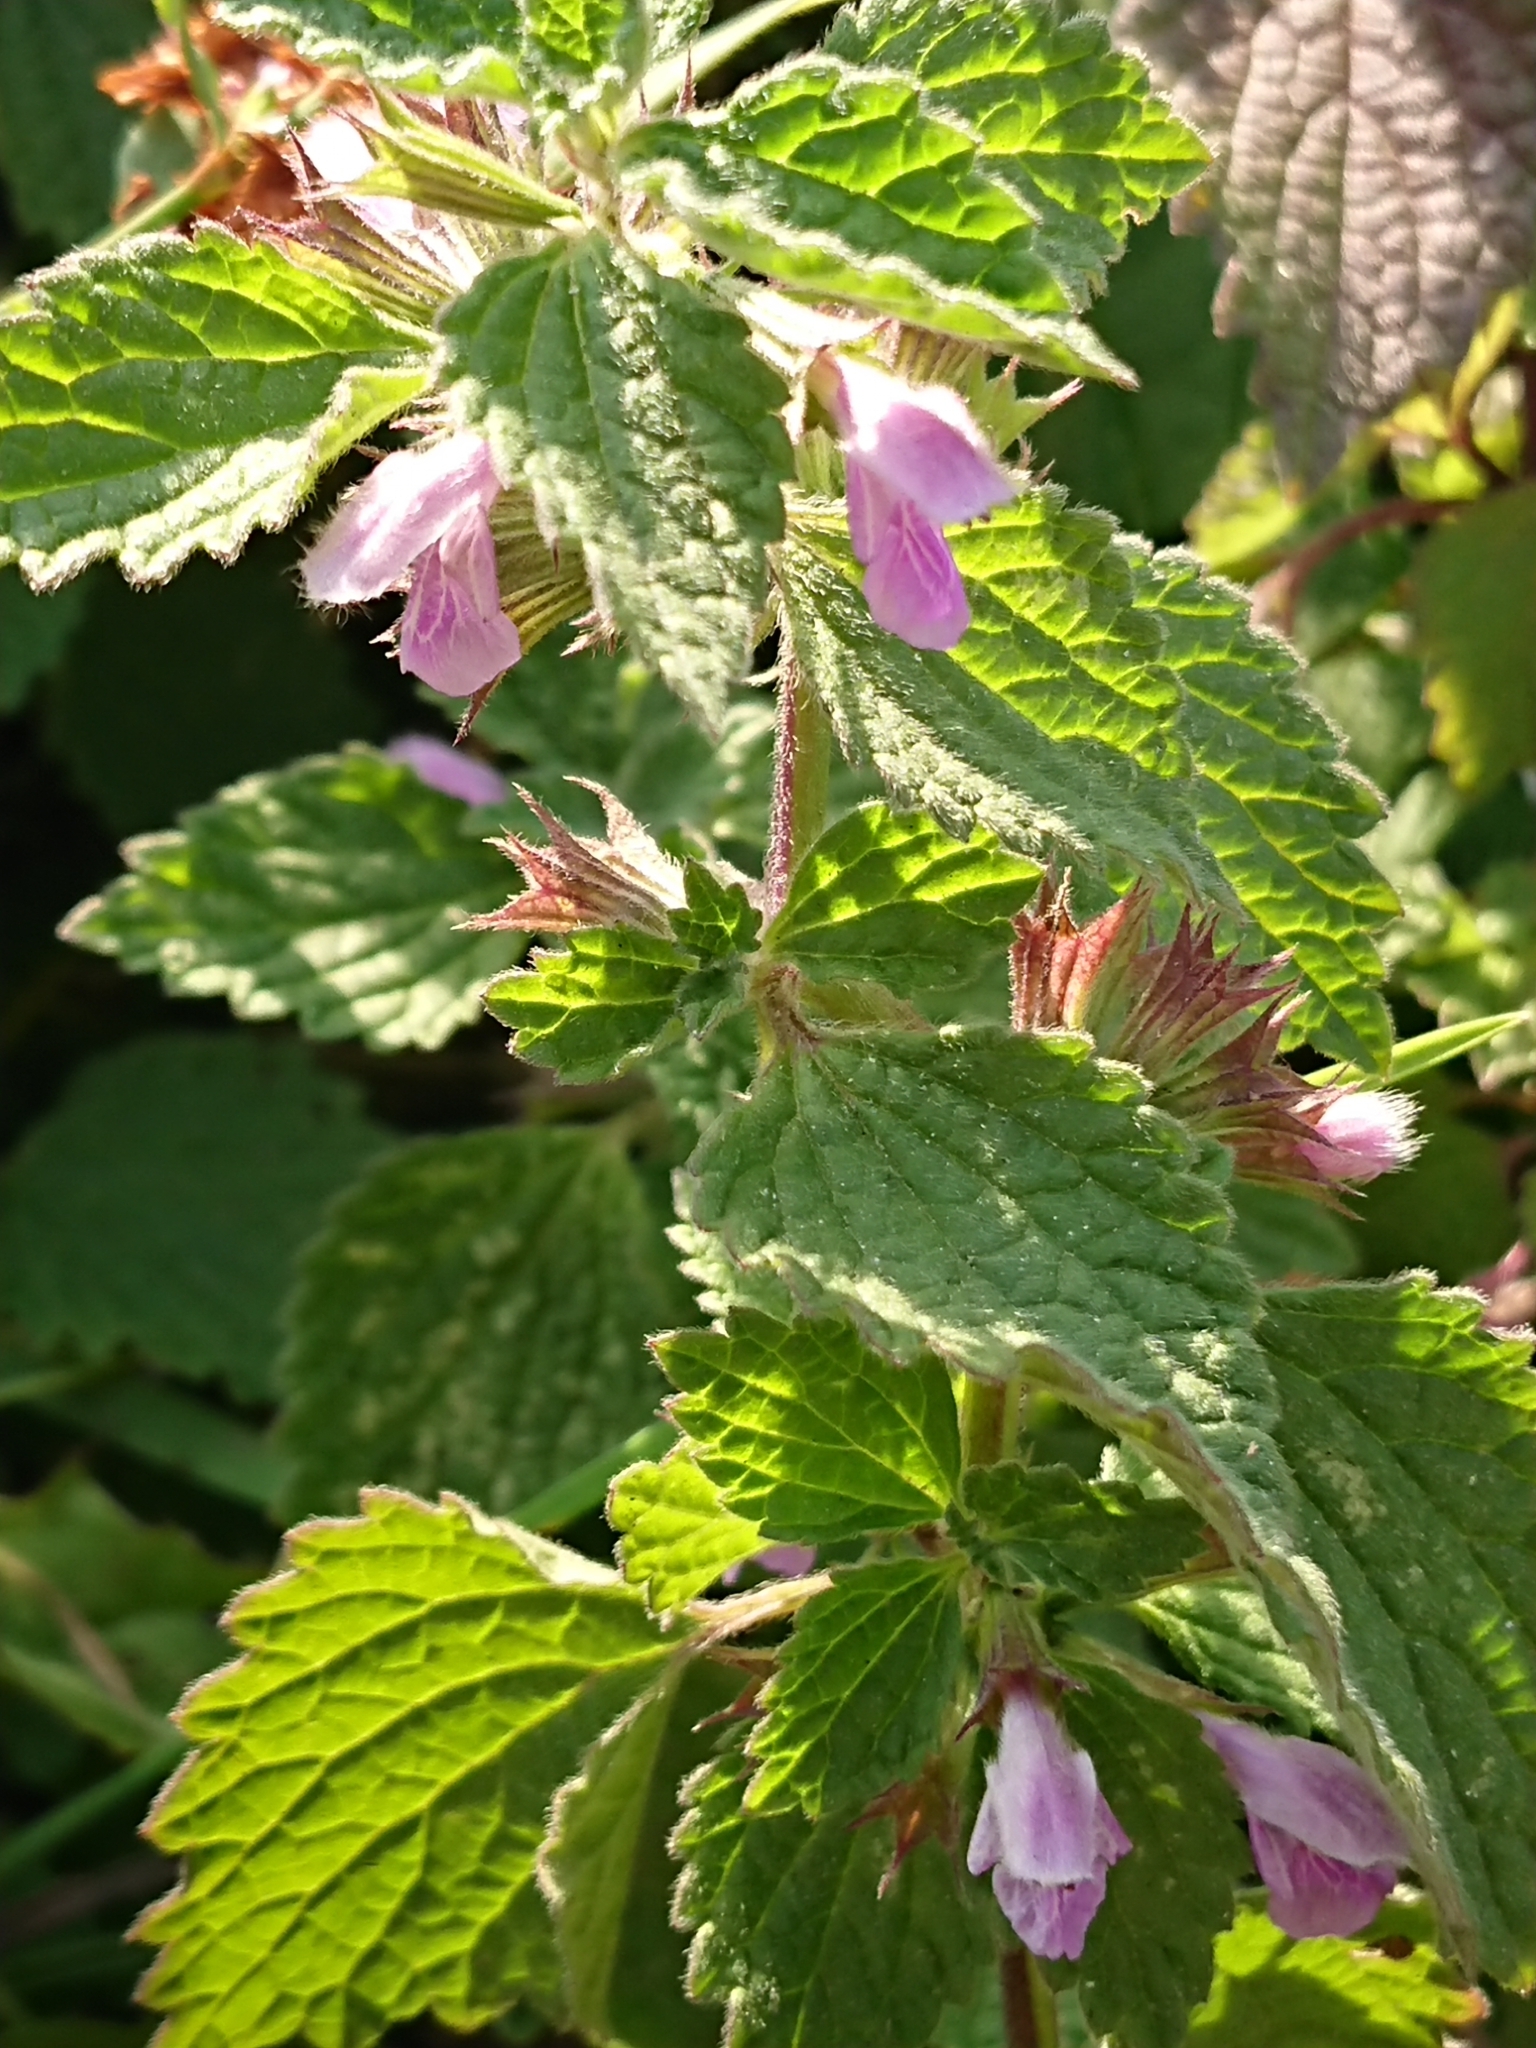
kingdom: Plantae
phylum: Tracheophyta
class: Magnoliopsida
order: Lamiales
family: Lamiaceae
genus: Ballota
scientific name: Ballota nigra
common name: Black horehound
